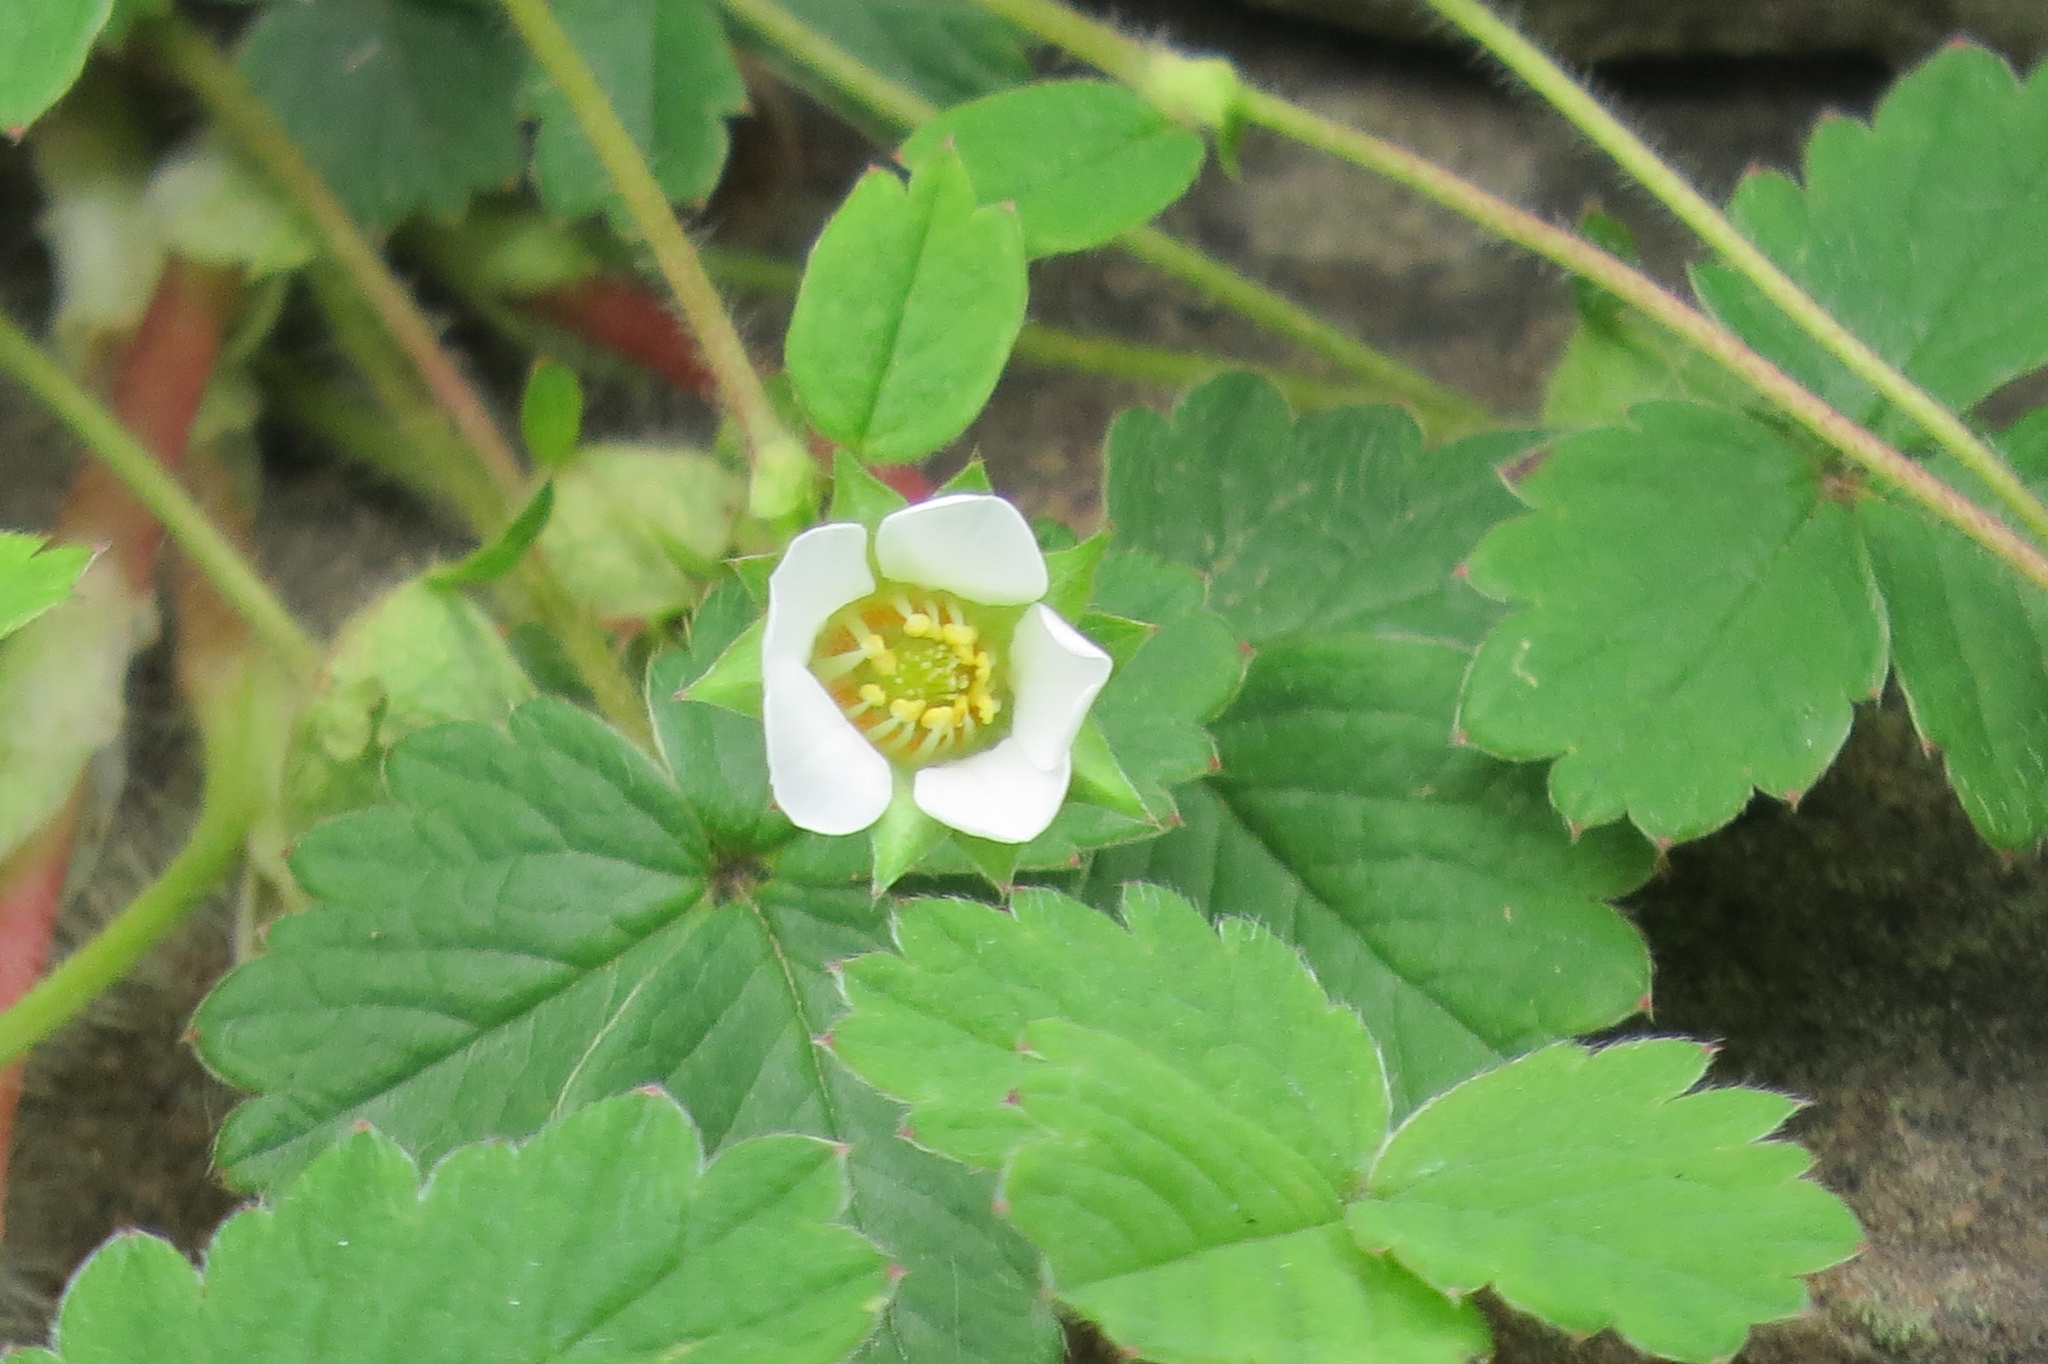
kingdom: Plantae
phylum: Tracheophyta
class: Magnoliopsida
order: Rosales
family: Rosaceae
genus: Potentilla
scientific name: Potentilla sterilis
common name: Barren strawberry
